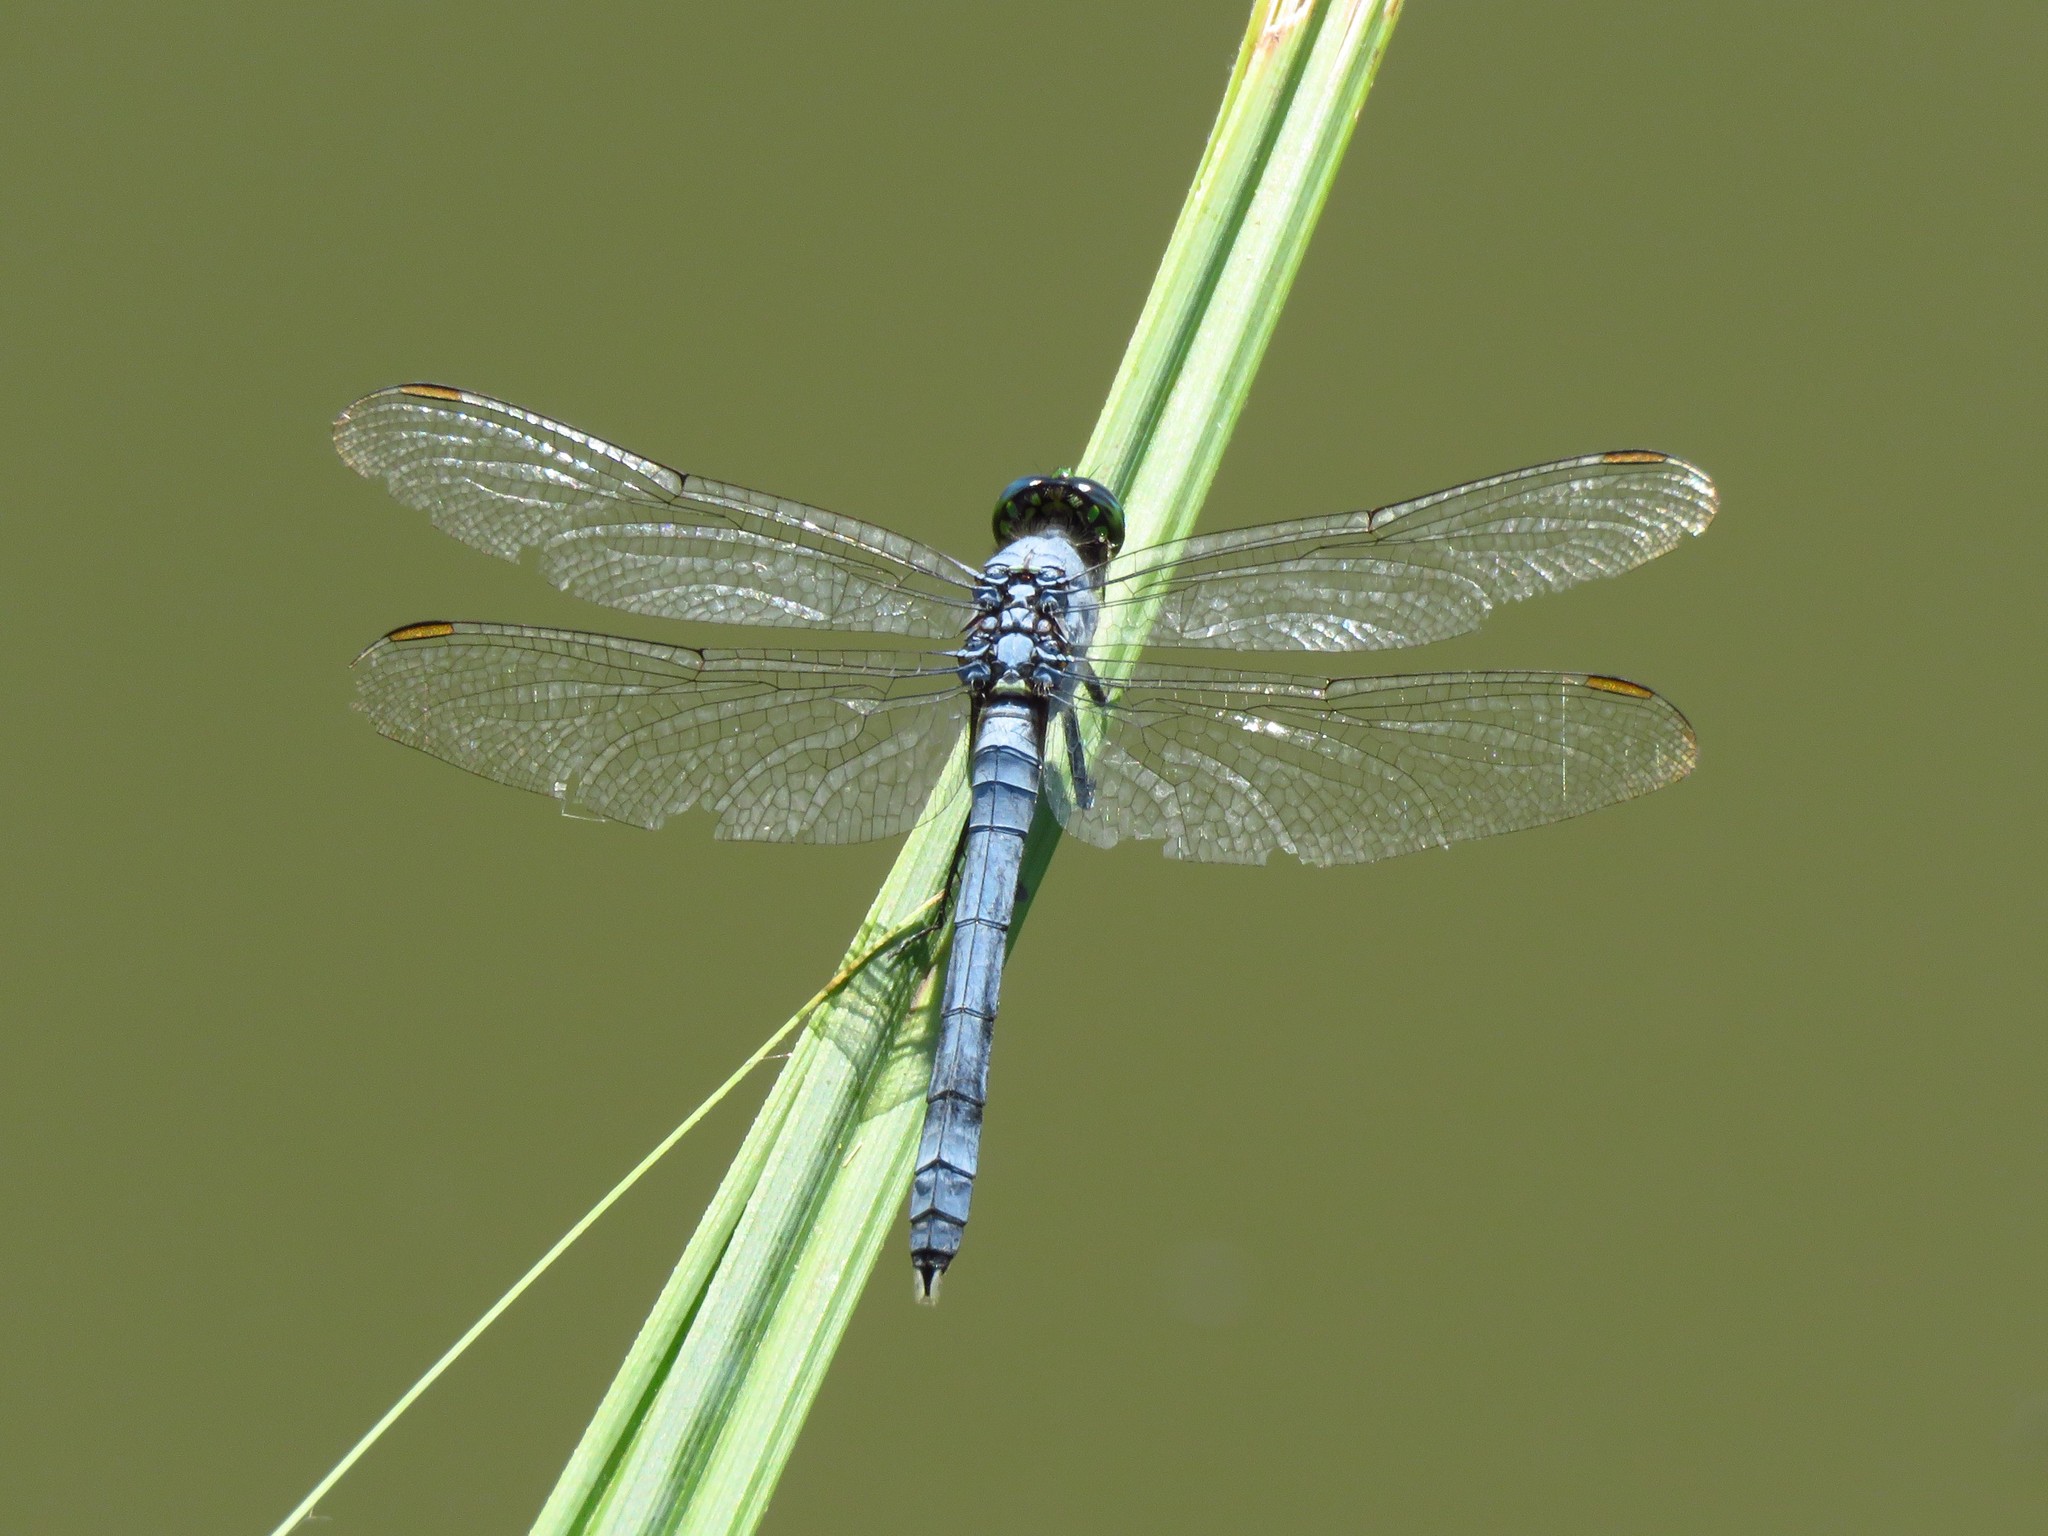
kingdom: Animalia
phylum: Arthropoda
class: Insecta
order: Odonata
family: Libellulidae
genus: Erythemis
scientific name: Erythemis simplicicollis
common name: Eastern pondhawk
